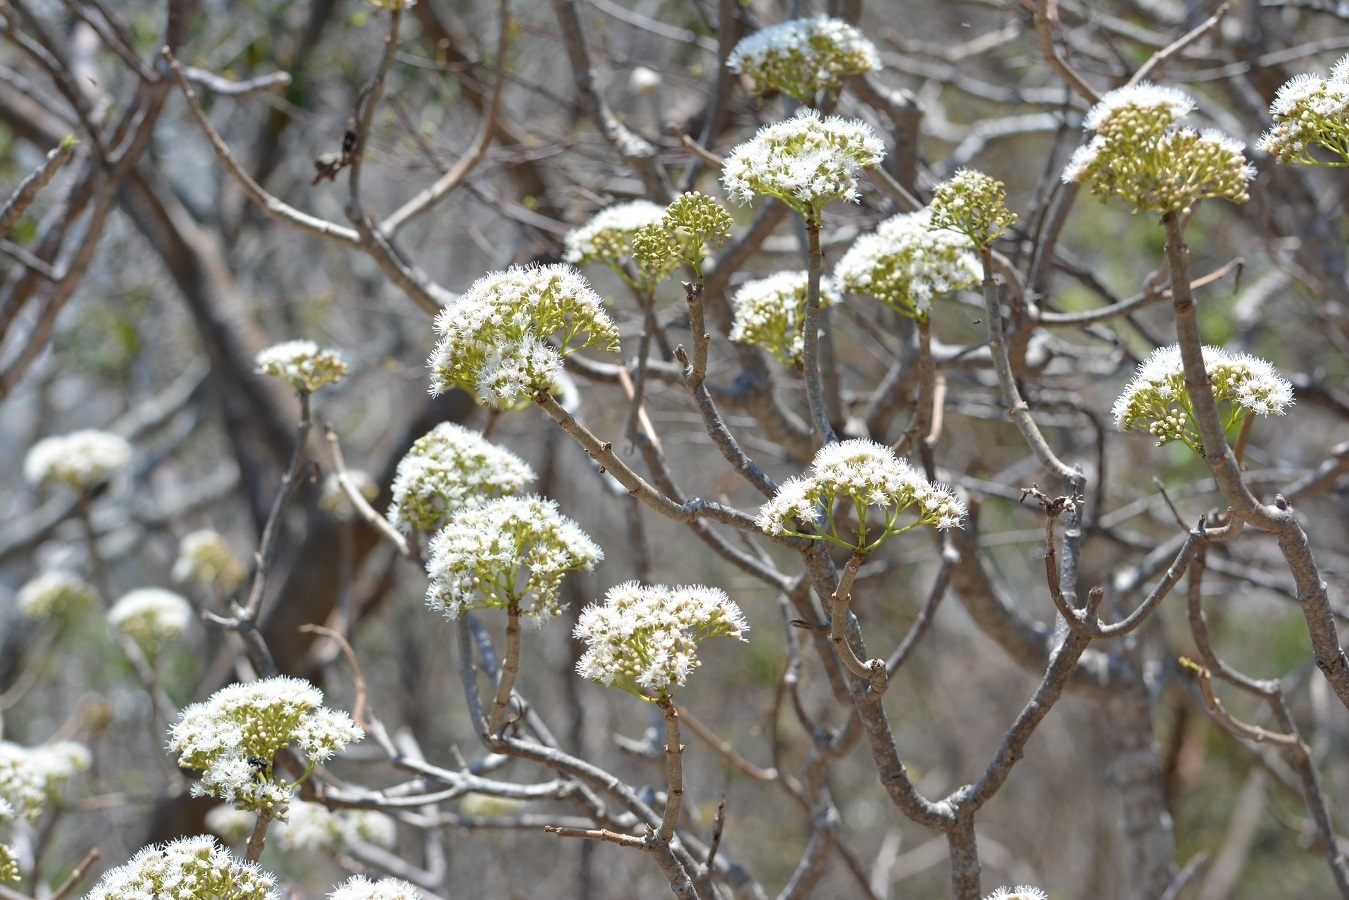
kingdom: Plantae
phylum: Tracheophyta
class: Magnoliopsida
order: Asterales
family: Asteraceae
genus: Ageratina
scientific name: Ageratina crassiramea
